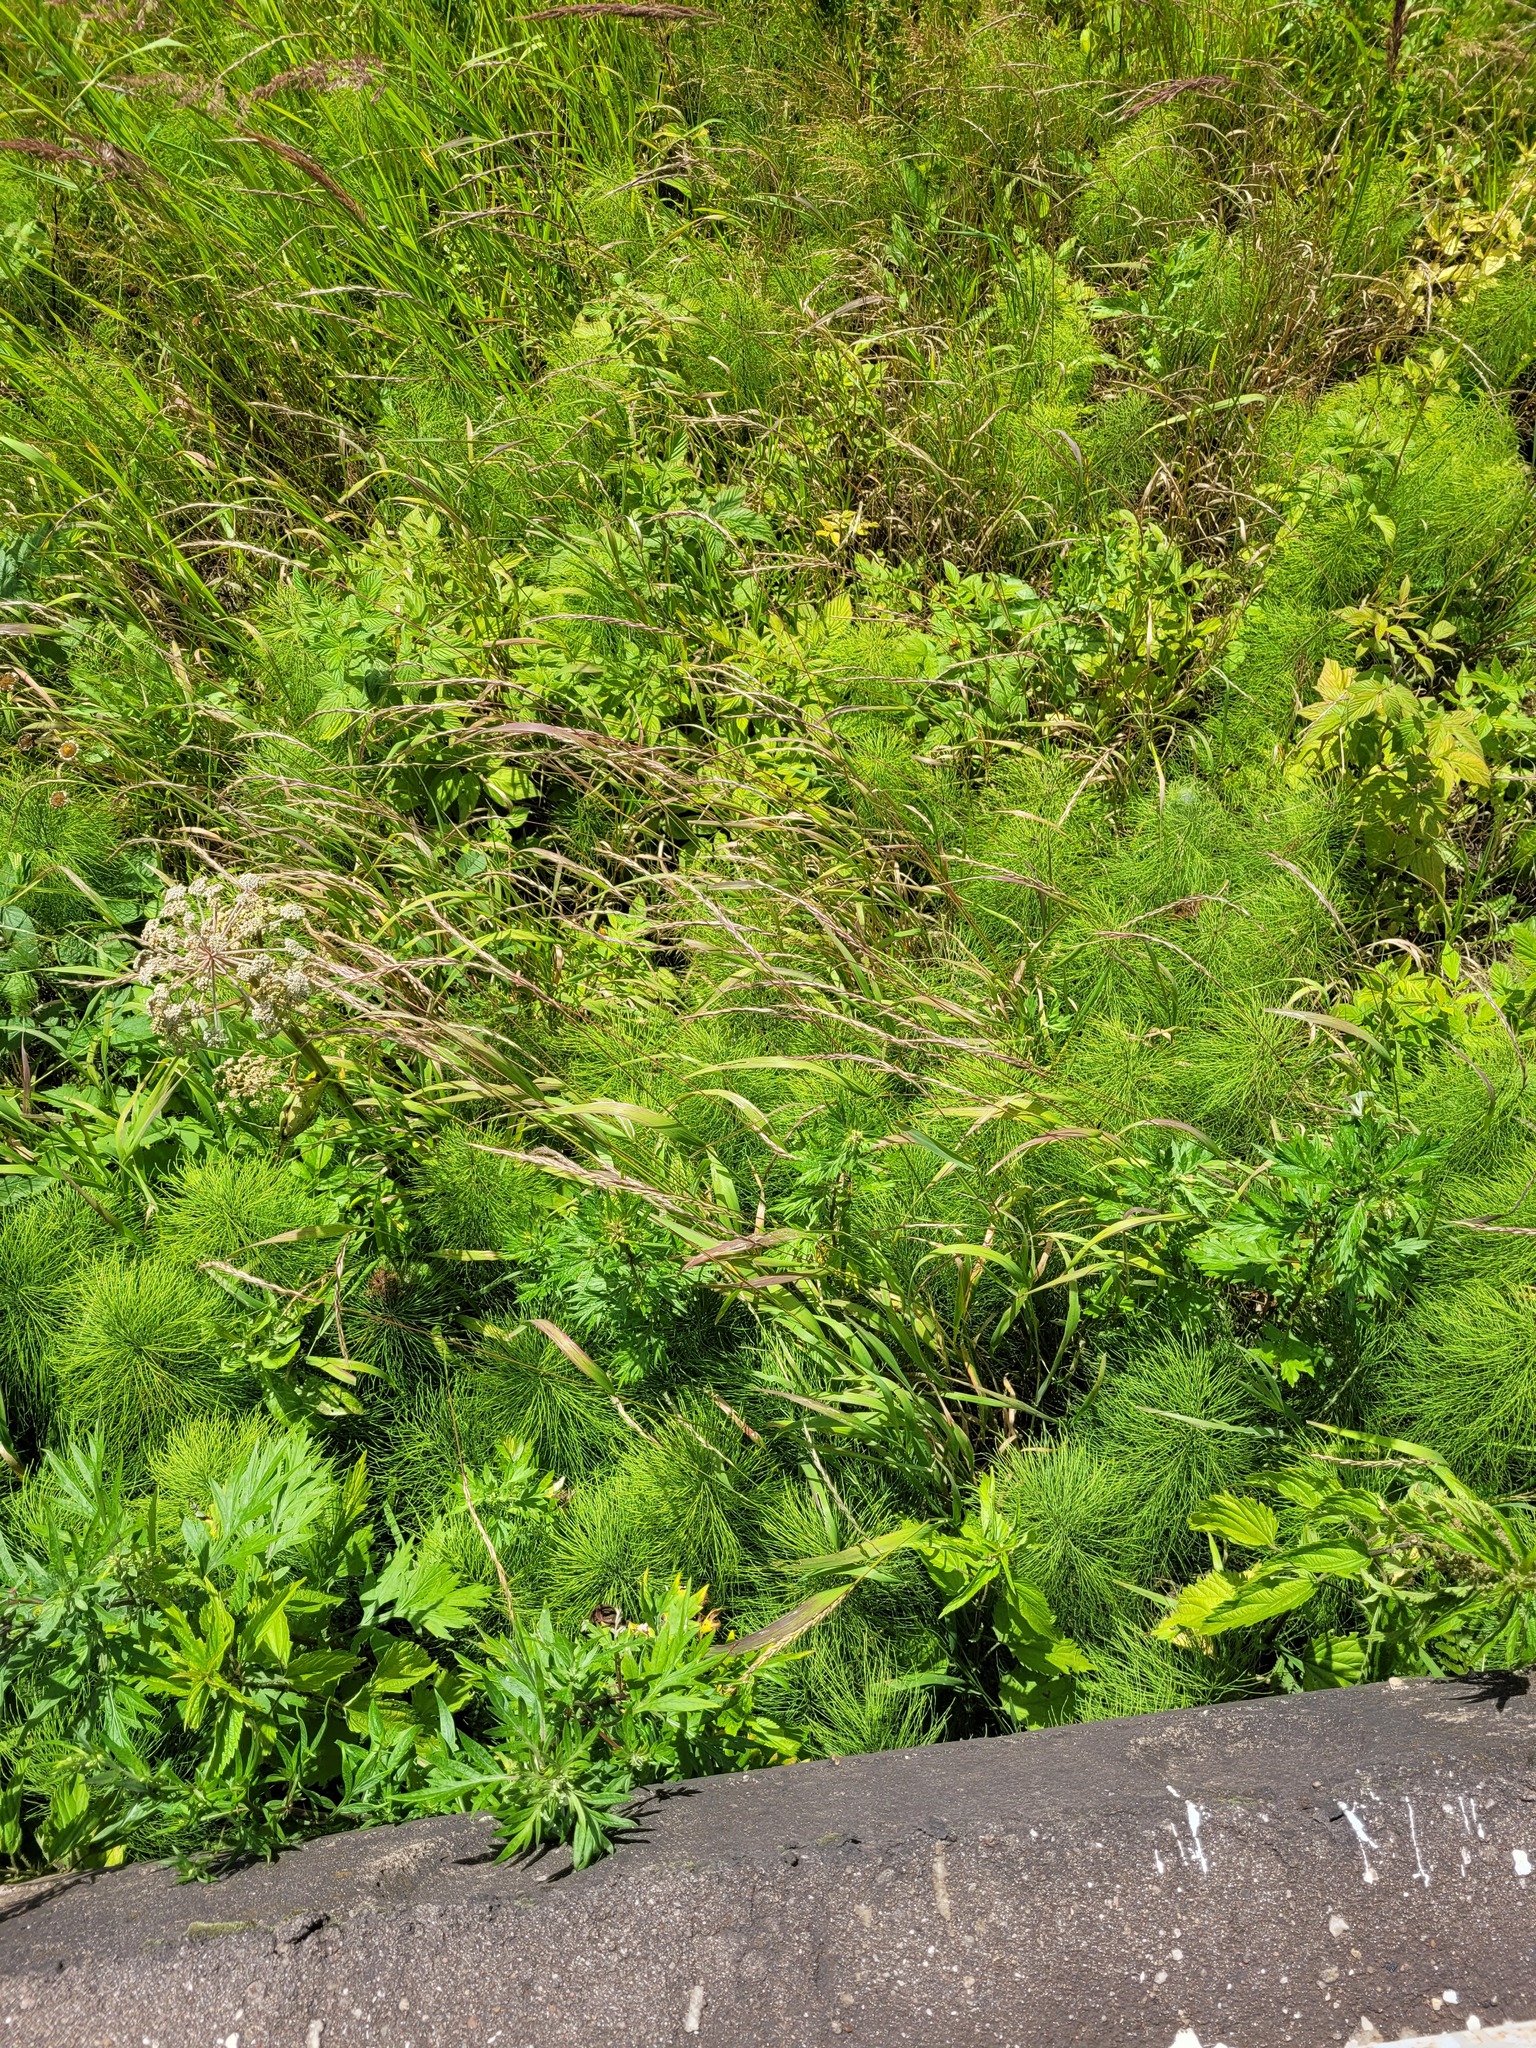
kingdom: Plantae
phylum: Tracheophyta
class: Liliopsida
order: Poales
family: Poaceae
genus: Elymus
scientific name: Elymus caninus
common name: Bearded couch
